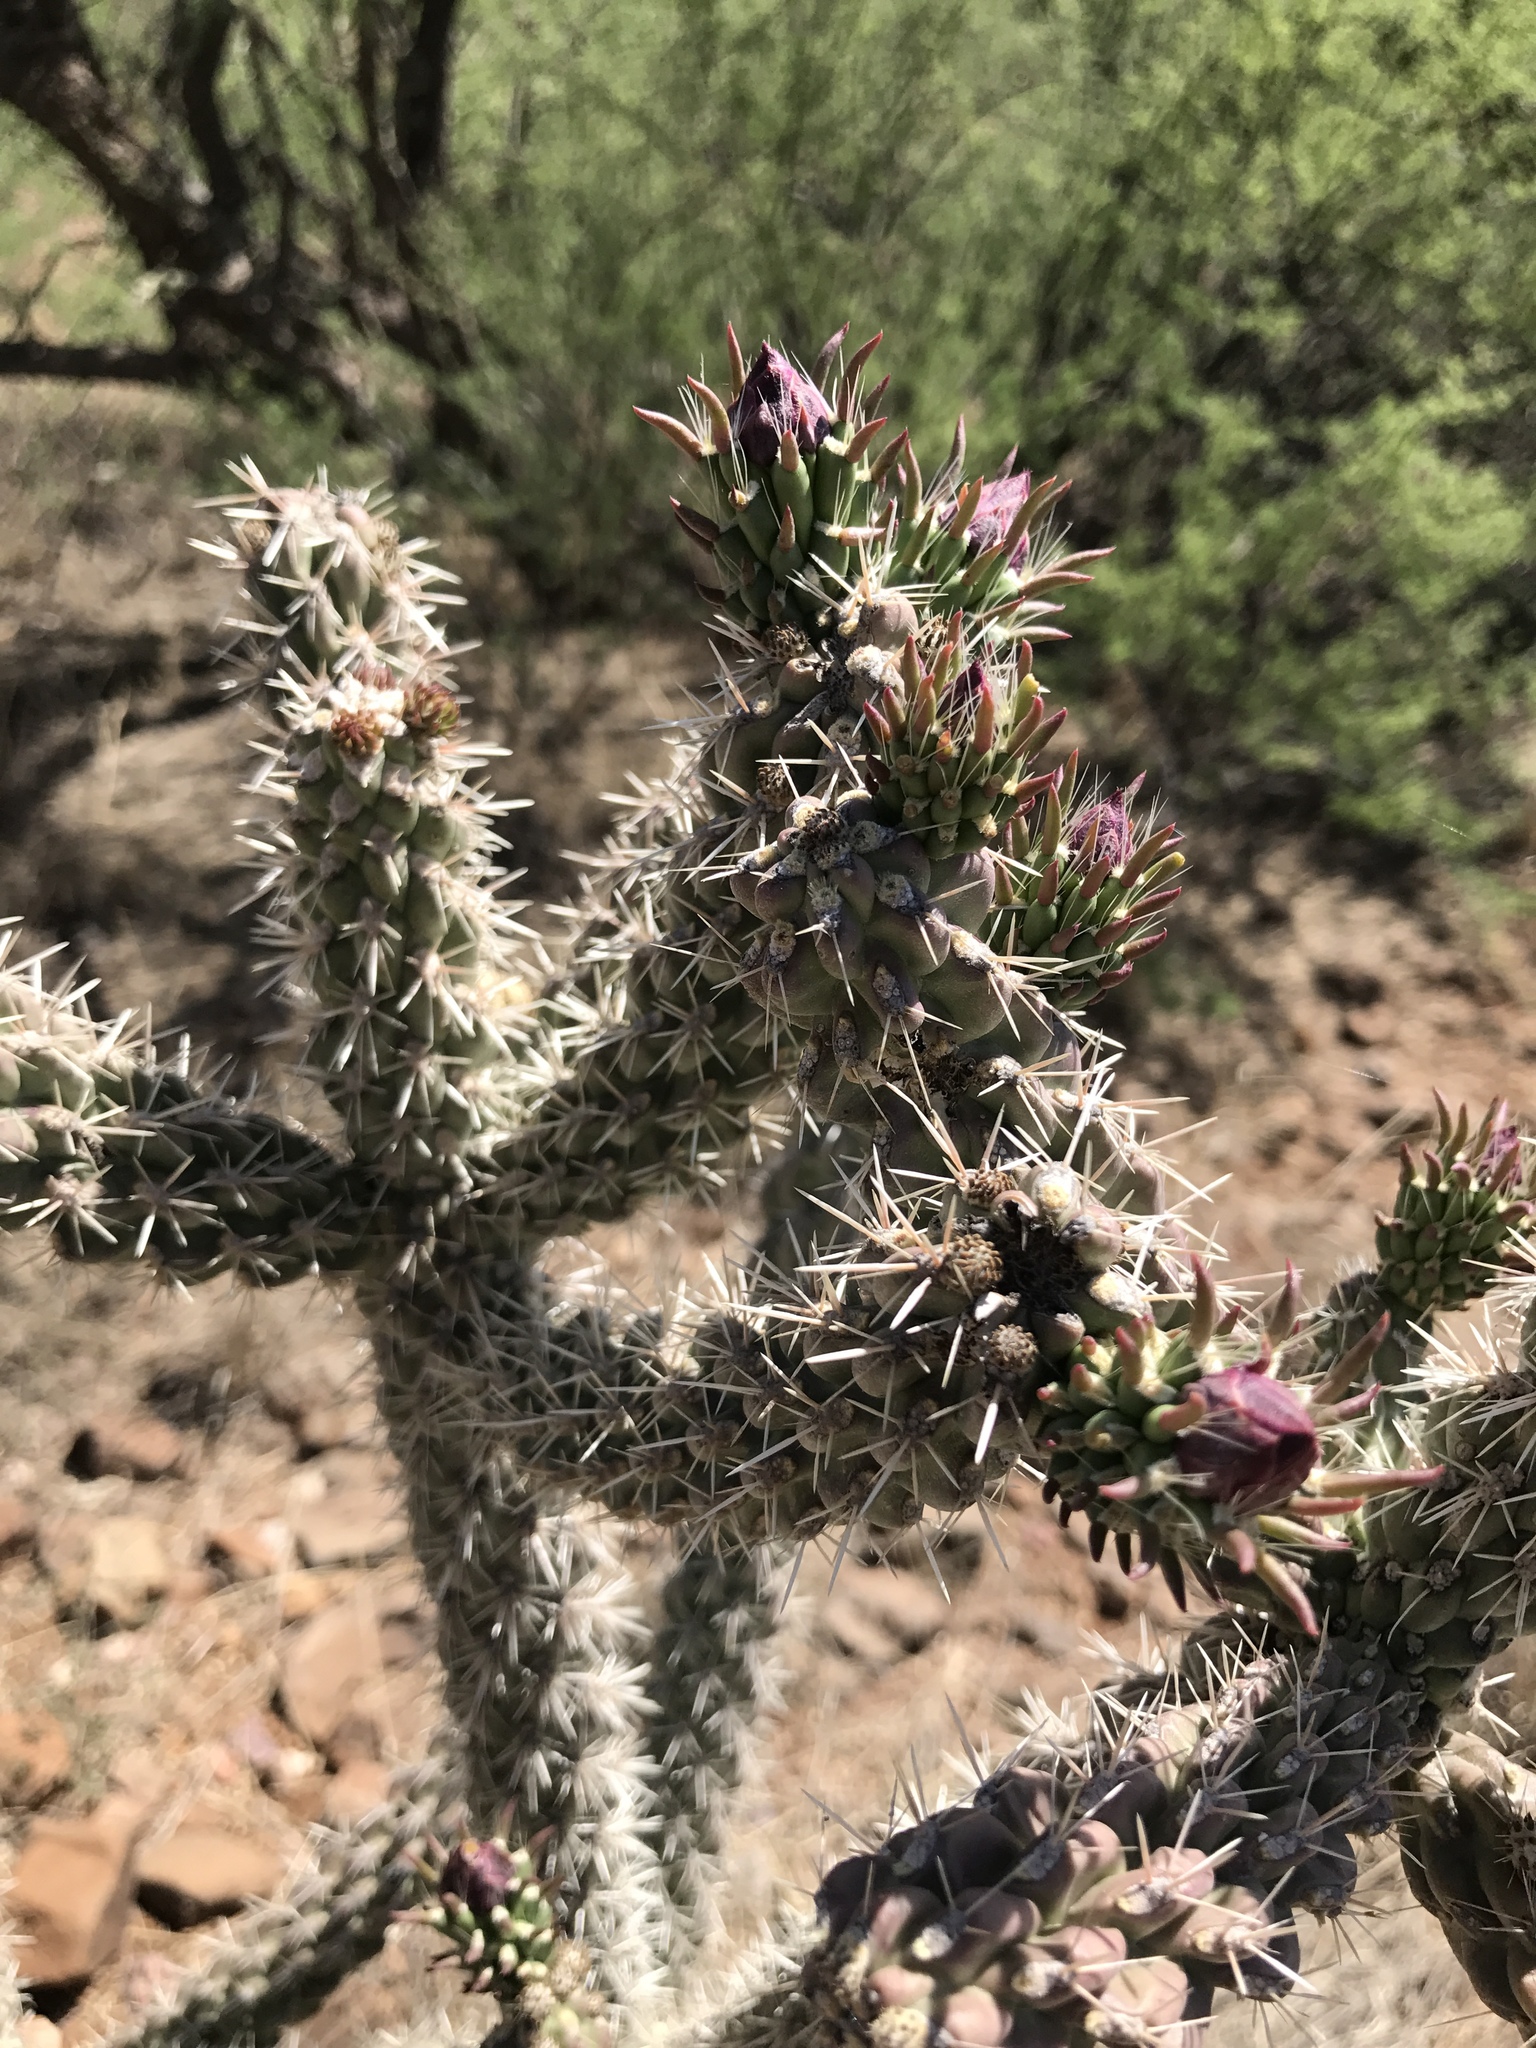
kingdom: Plantae
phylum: Tracheophyta
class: Magnoliopsida
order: Caryophyllales
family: Cactaceae
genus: Cylindropuntia
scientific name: Cylindropuntia imbricata
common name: Candelabrum cactus
